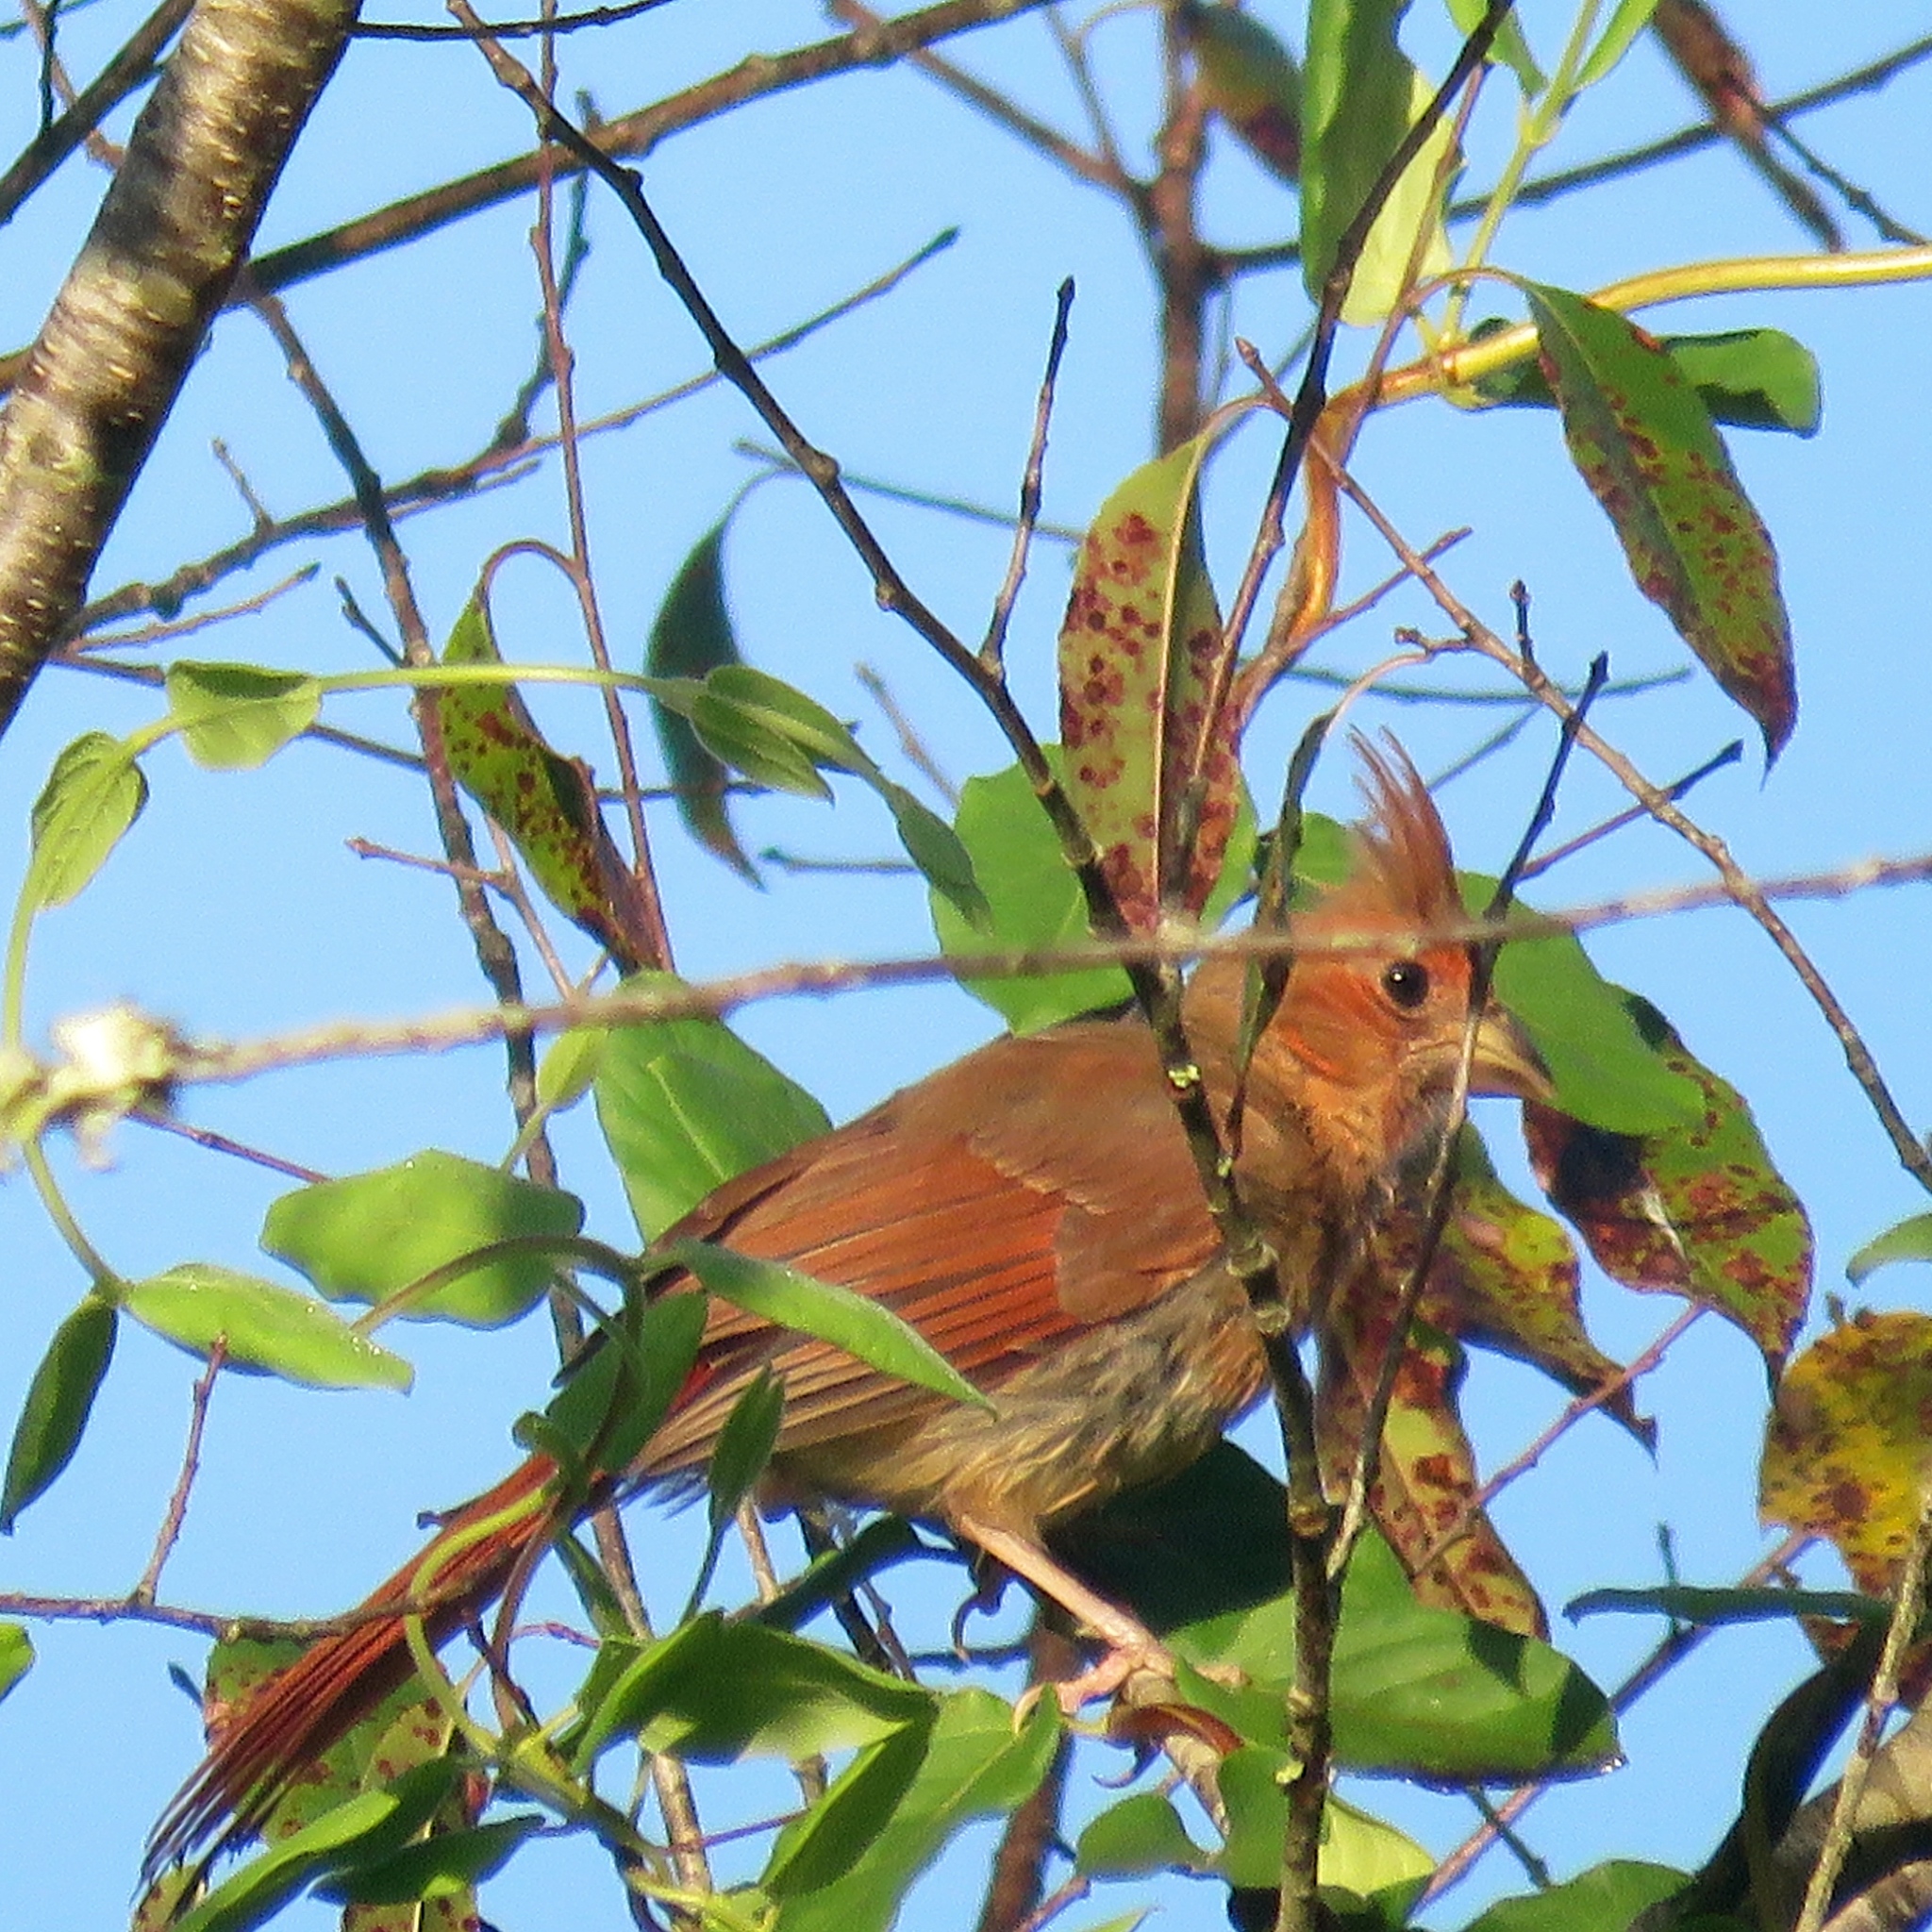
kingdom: Animalia
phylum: Chordata
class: Aves
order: Passeriformes
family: Cardinalidae
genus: Cardinalis
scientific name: Cardinalis cardinalis
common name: Northern cardinal
